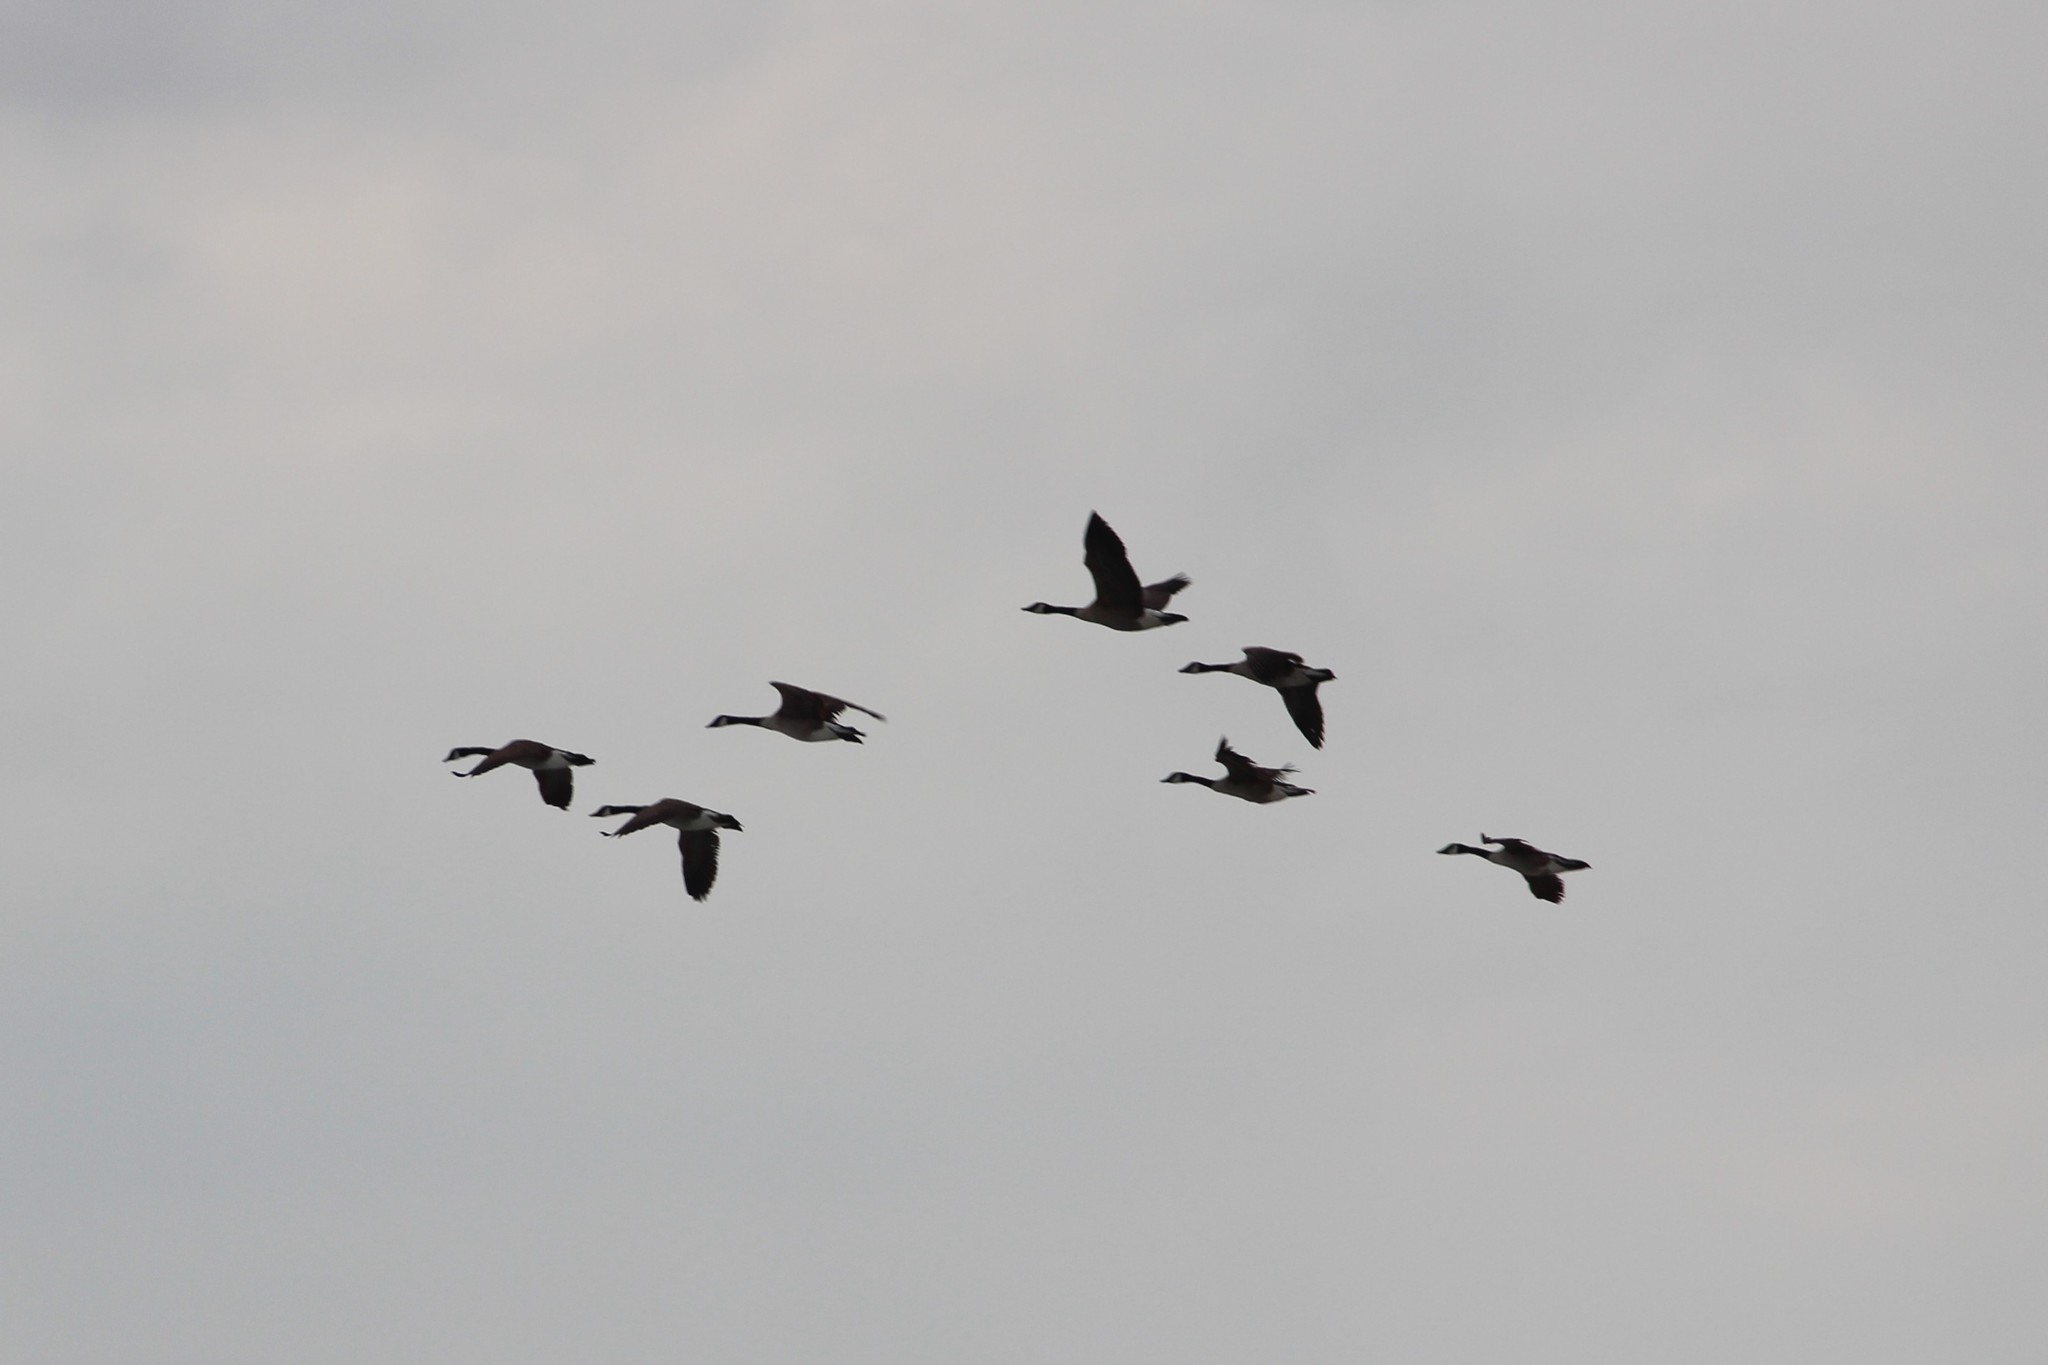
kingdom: Animalia
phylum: Chordata
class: Aves
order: Anseriformes
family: Anatidae
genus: Branta
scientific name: Branta canadensis
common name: Canada goose
